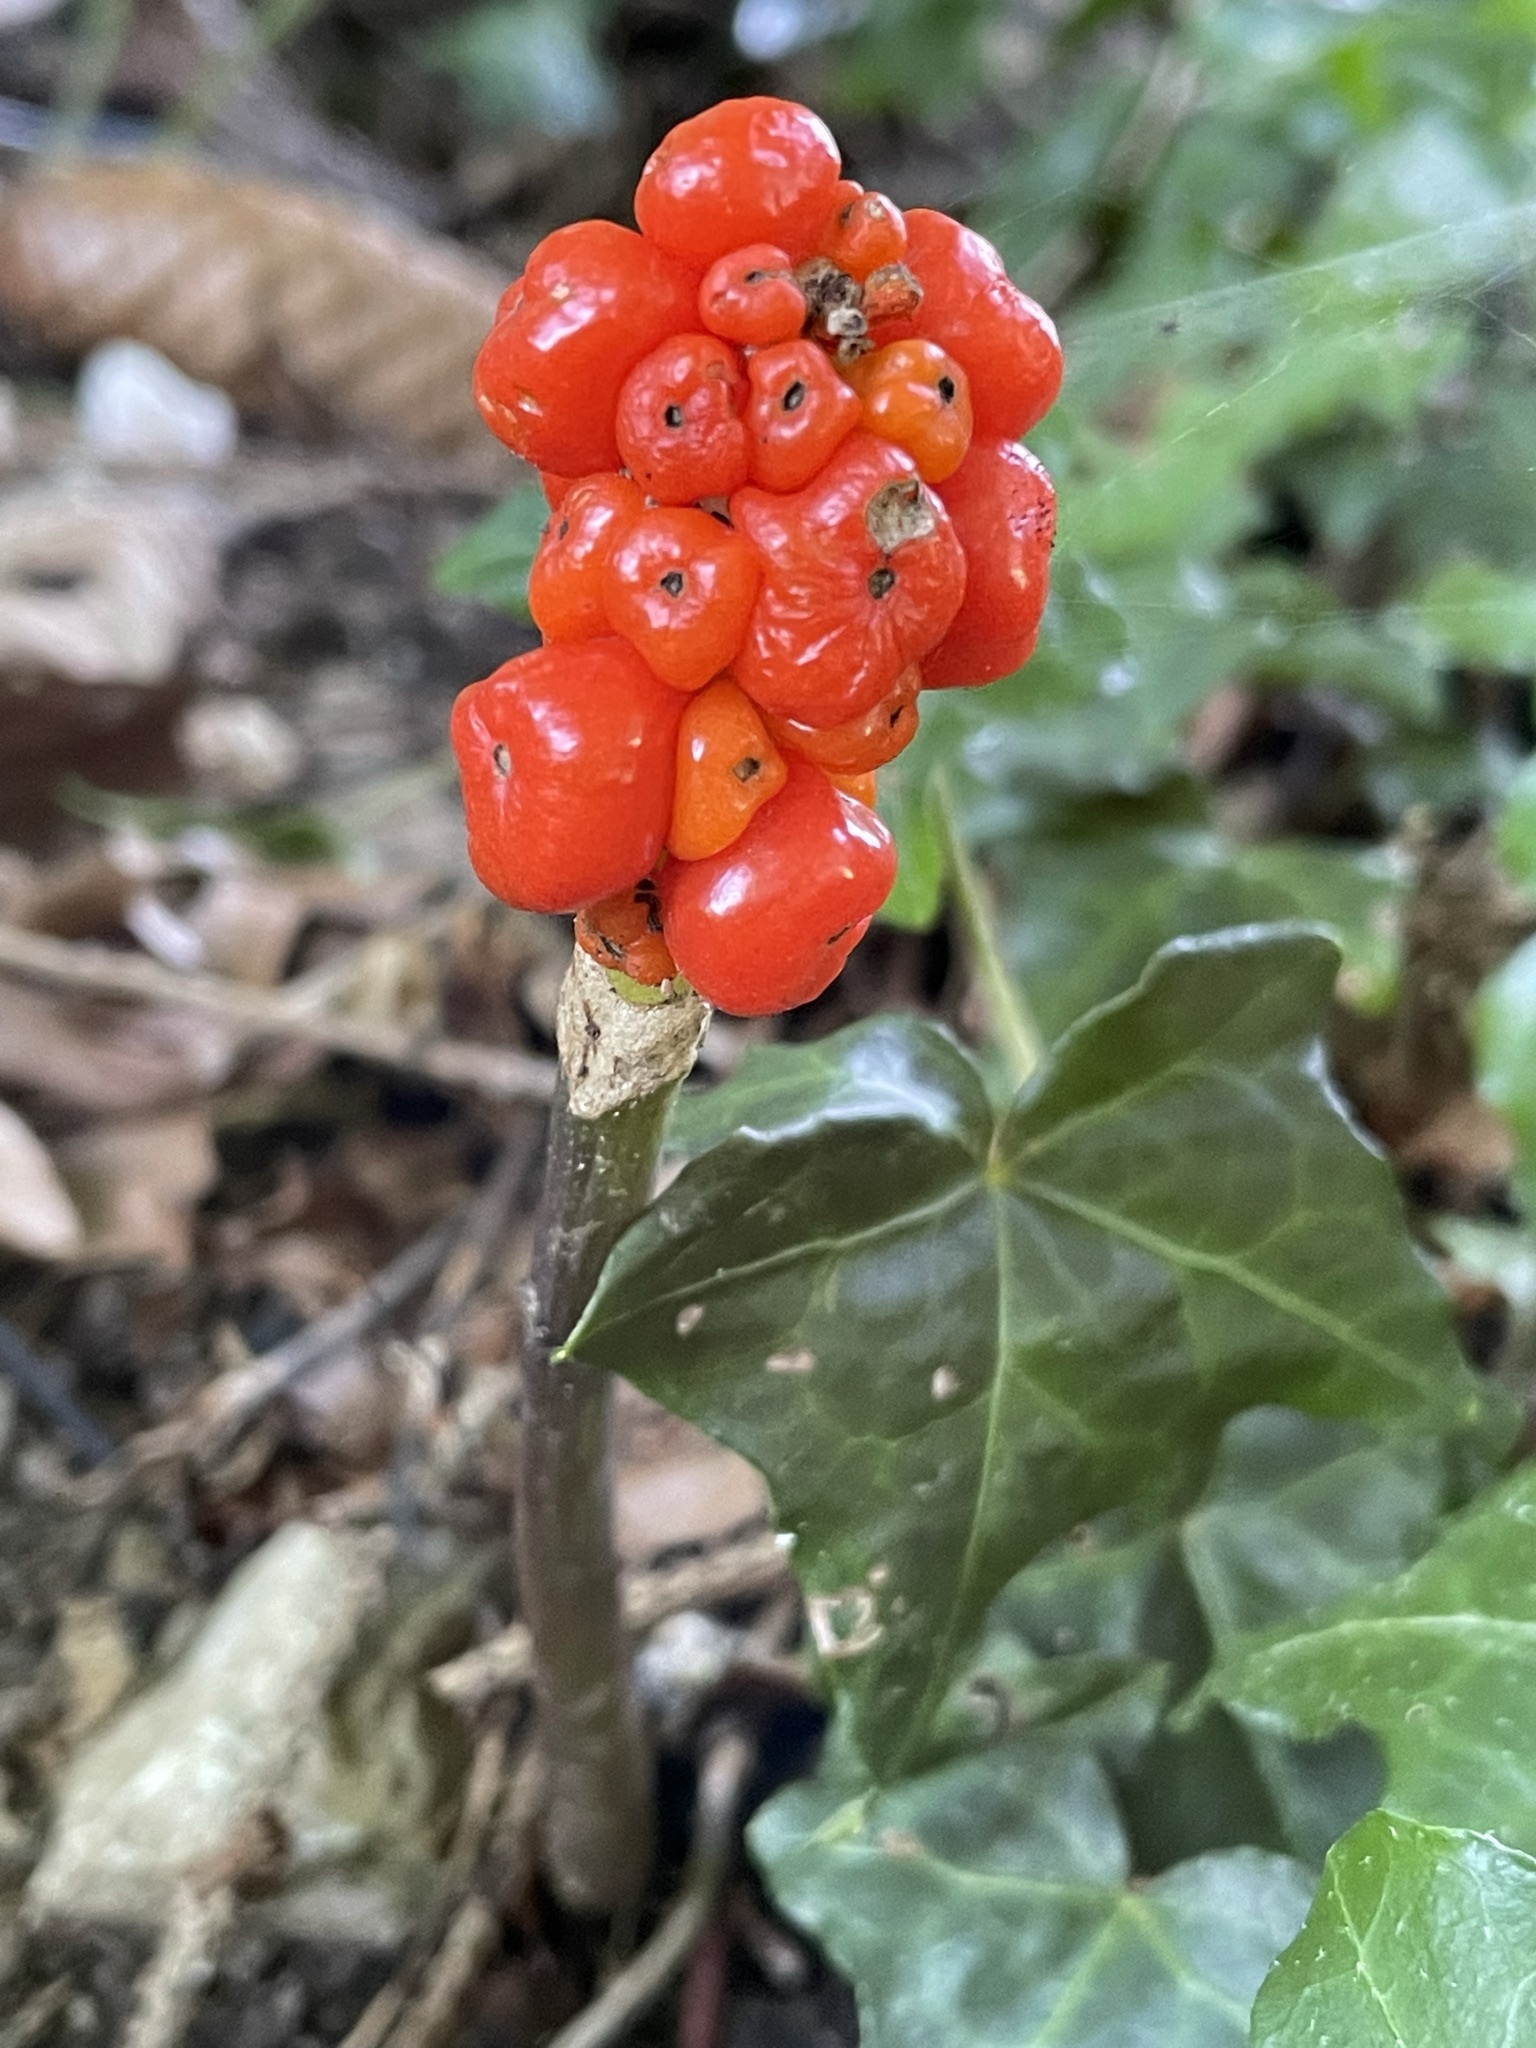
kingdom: Plantae
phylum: Tracheophyta
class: Liliopsida
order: Alismatales
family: Araceae
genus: Arum
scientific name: Arum maculatum
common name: Lords-and-ladies
